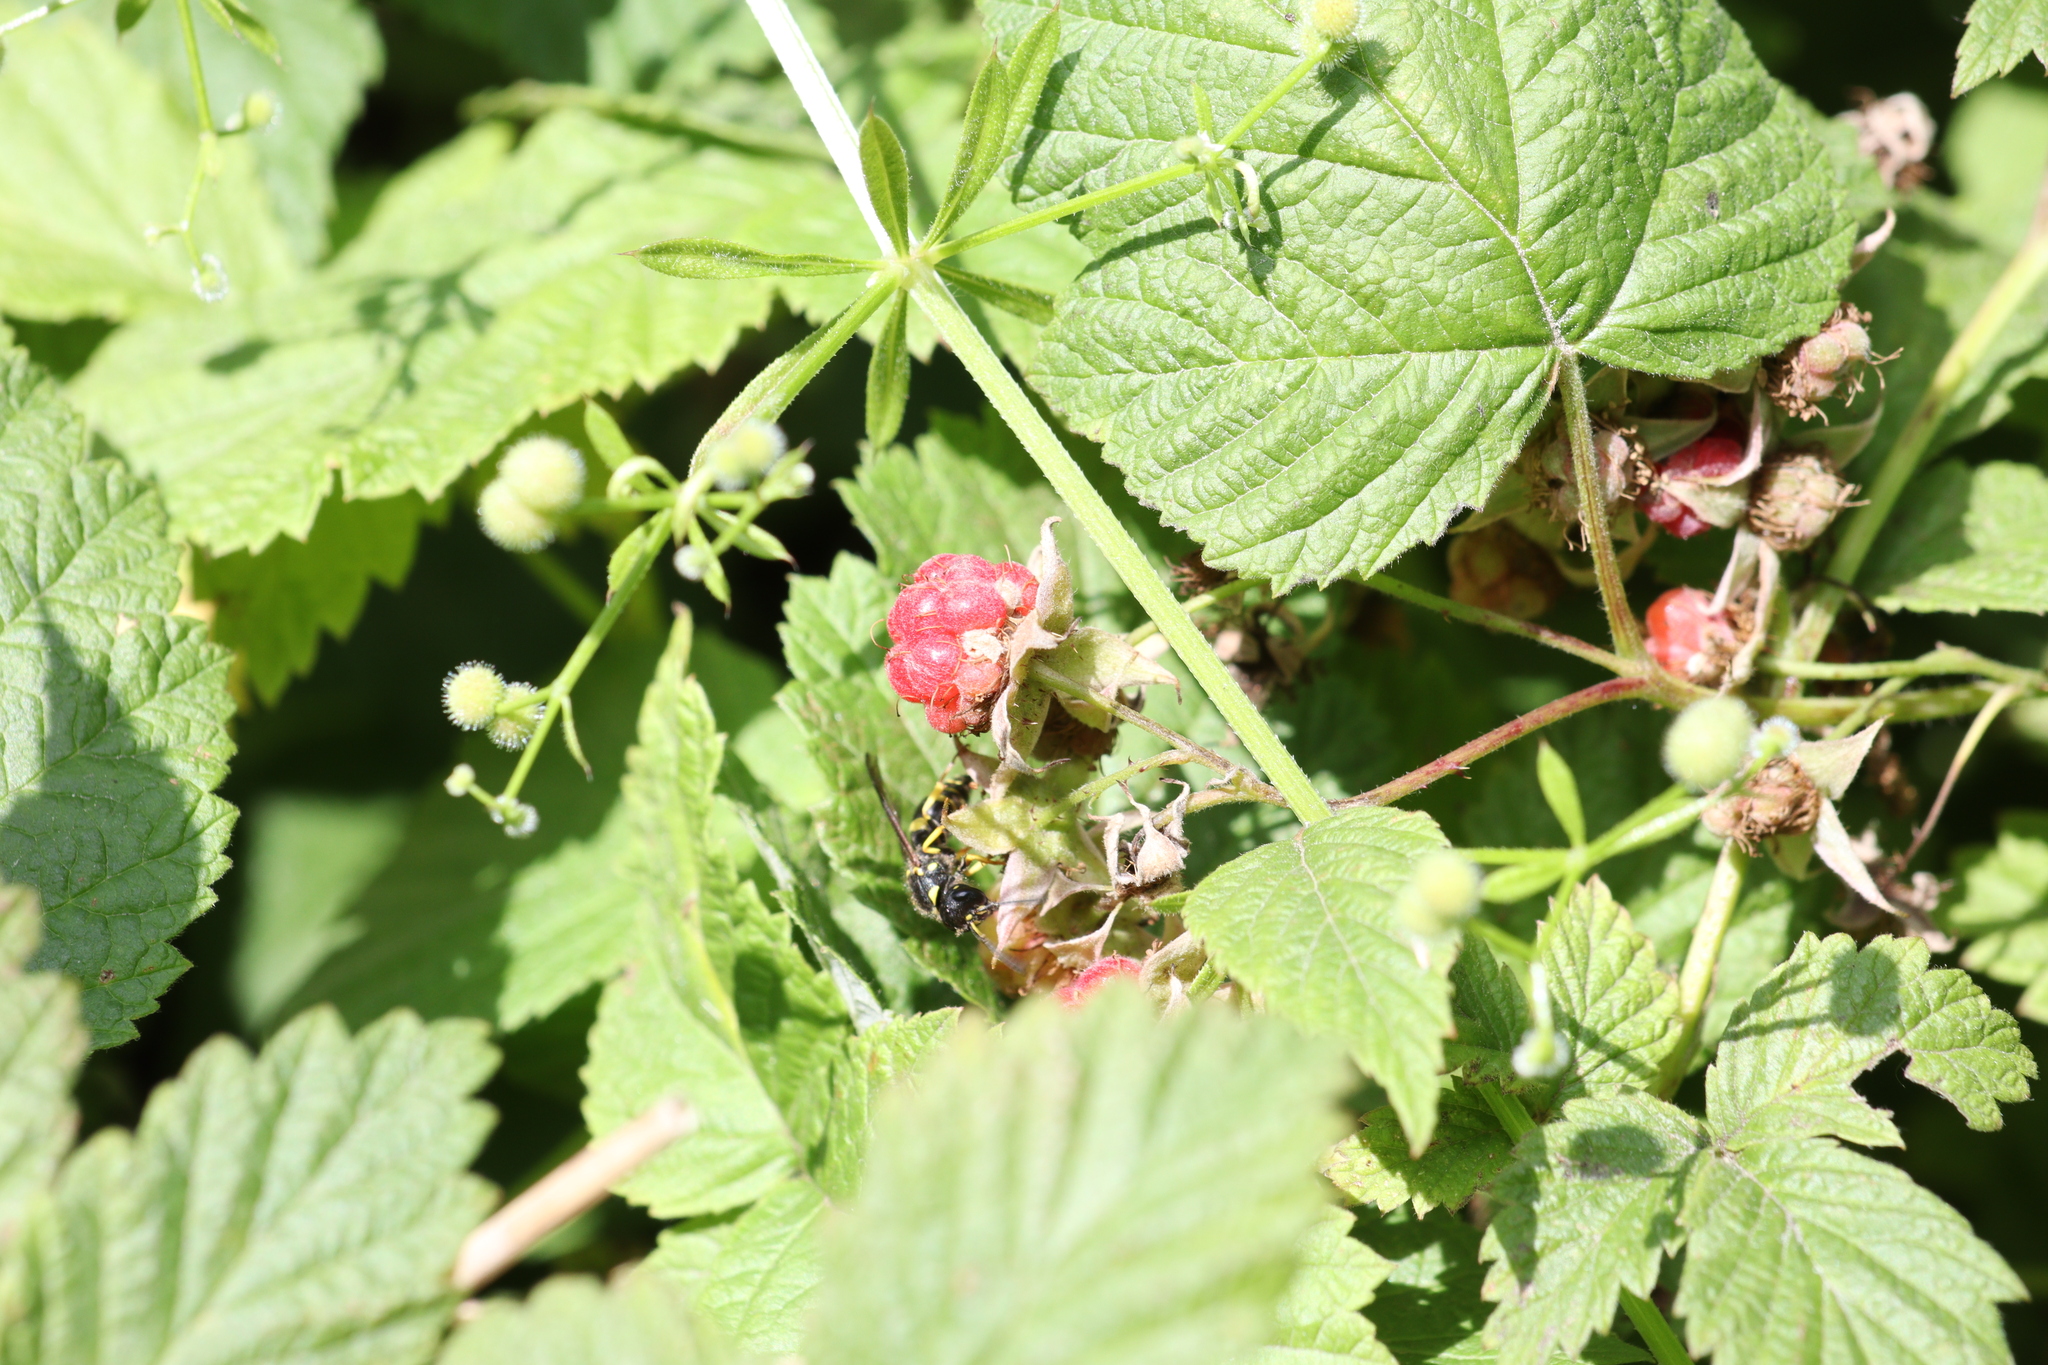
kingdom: Animalia
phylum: Arthropoda
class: Insecta
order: Hymenoptera
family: Vespidae
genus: Ancistrocerus
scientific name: Ancistrocerus
